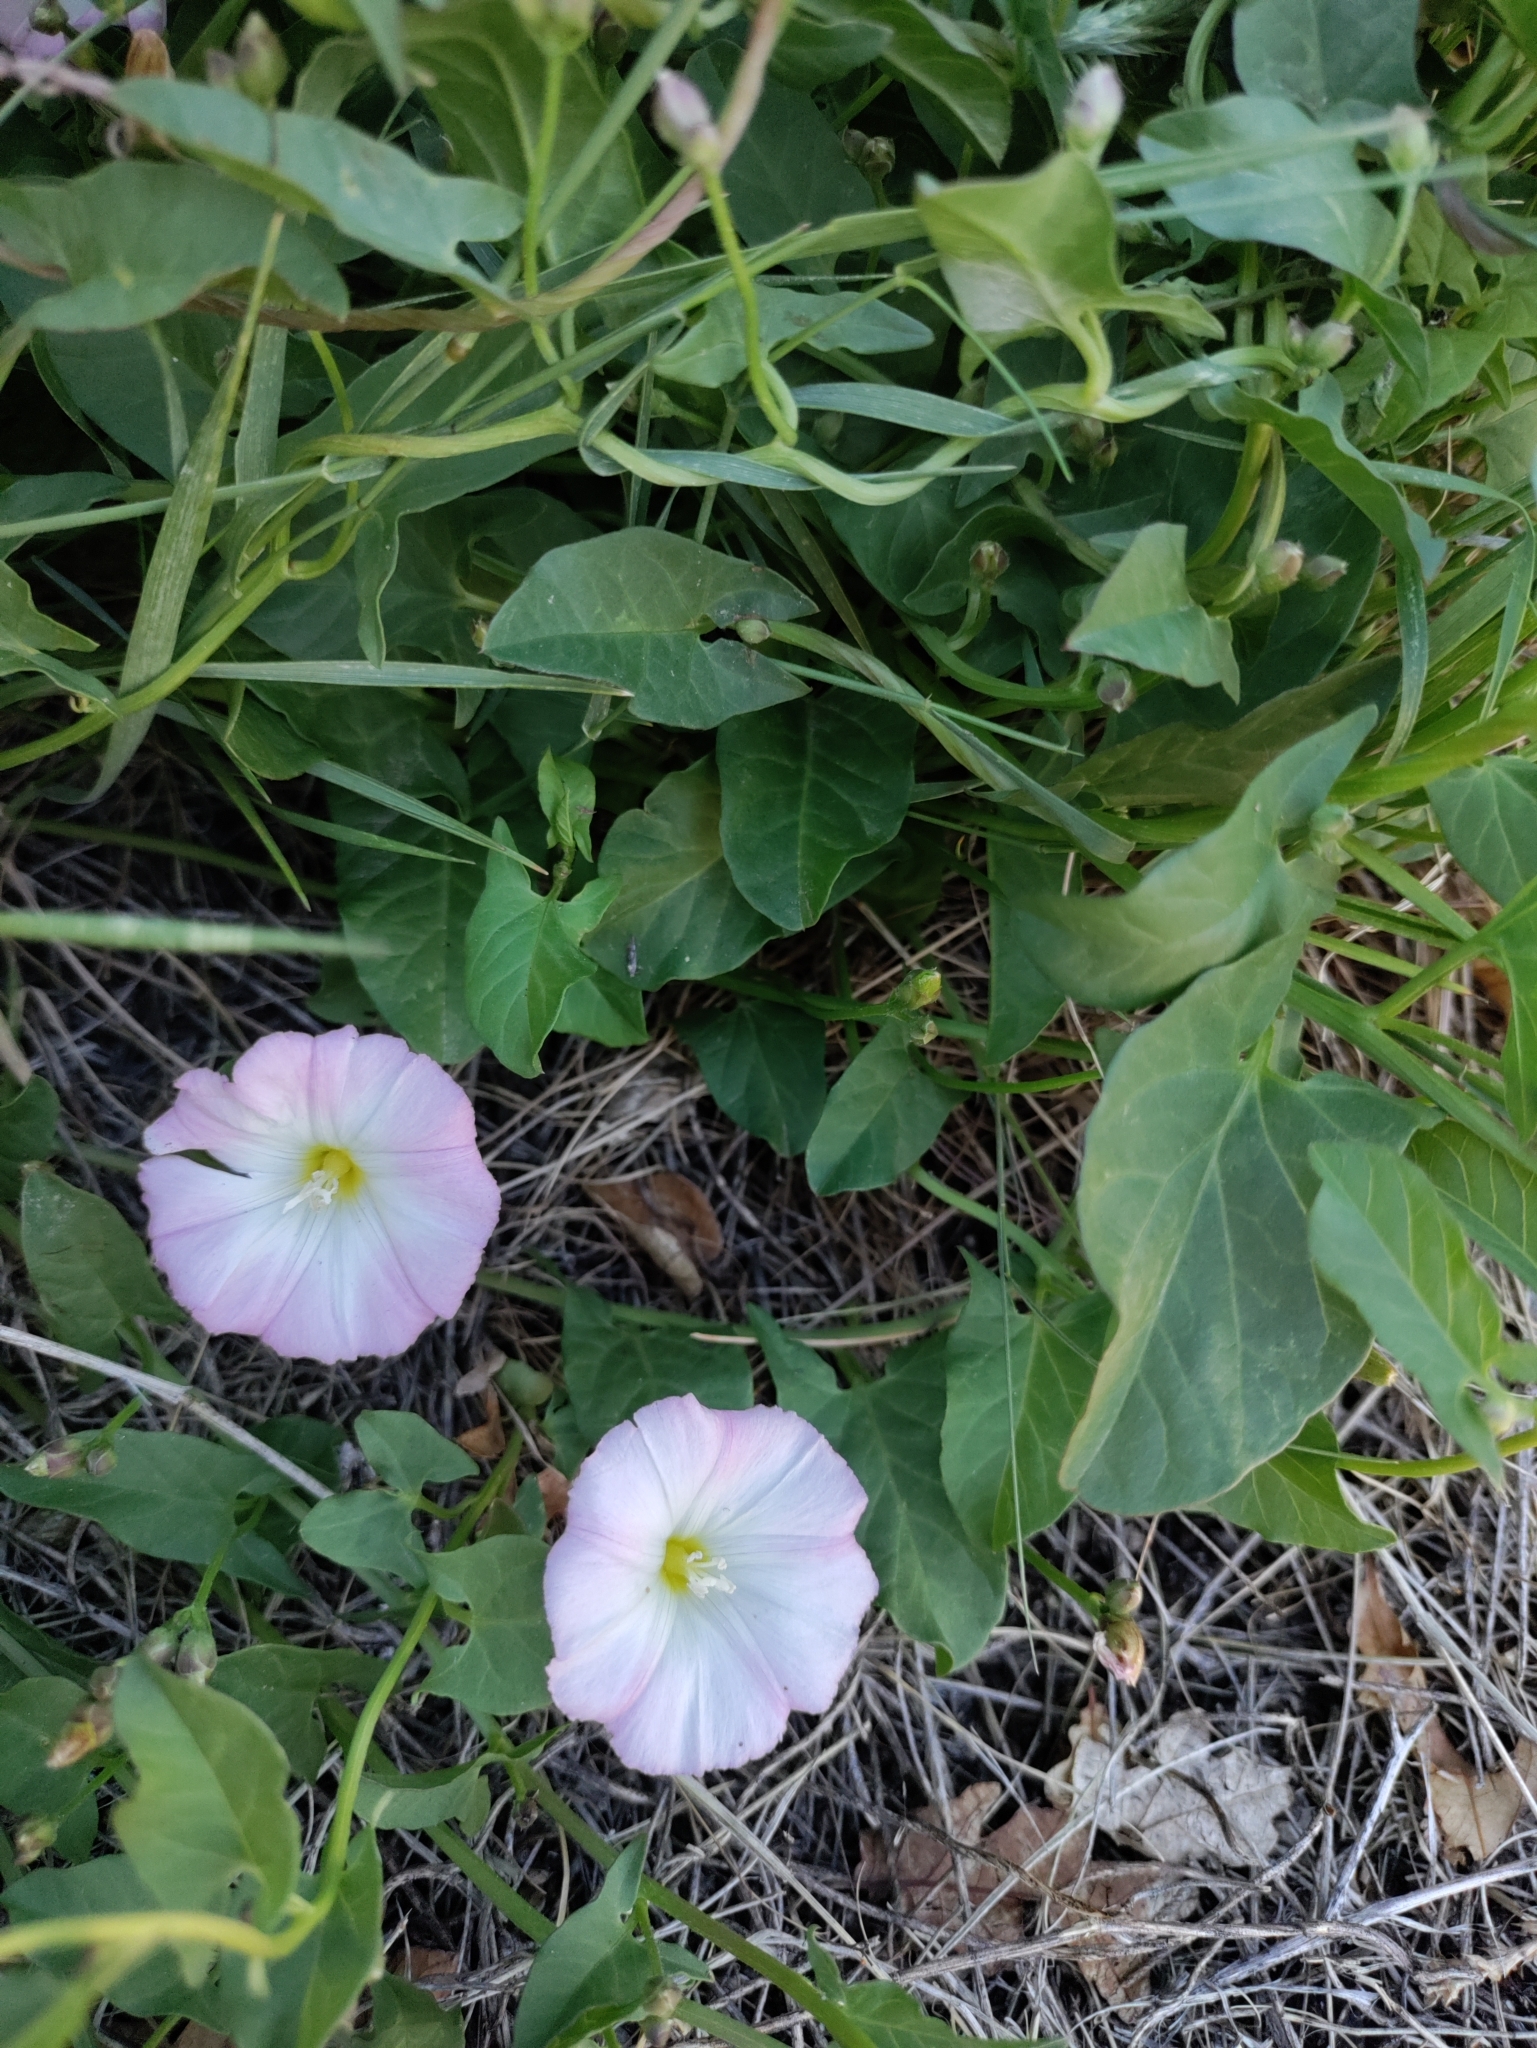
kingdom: Plantae
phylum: Tracheophyta
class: Magnoliopsida
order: Solanales
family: Convolvulaceae
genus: Convolvulus
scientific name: Convolvulus arvensis
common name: Field bindweed
